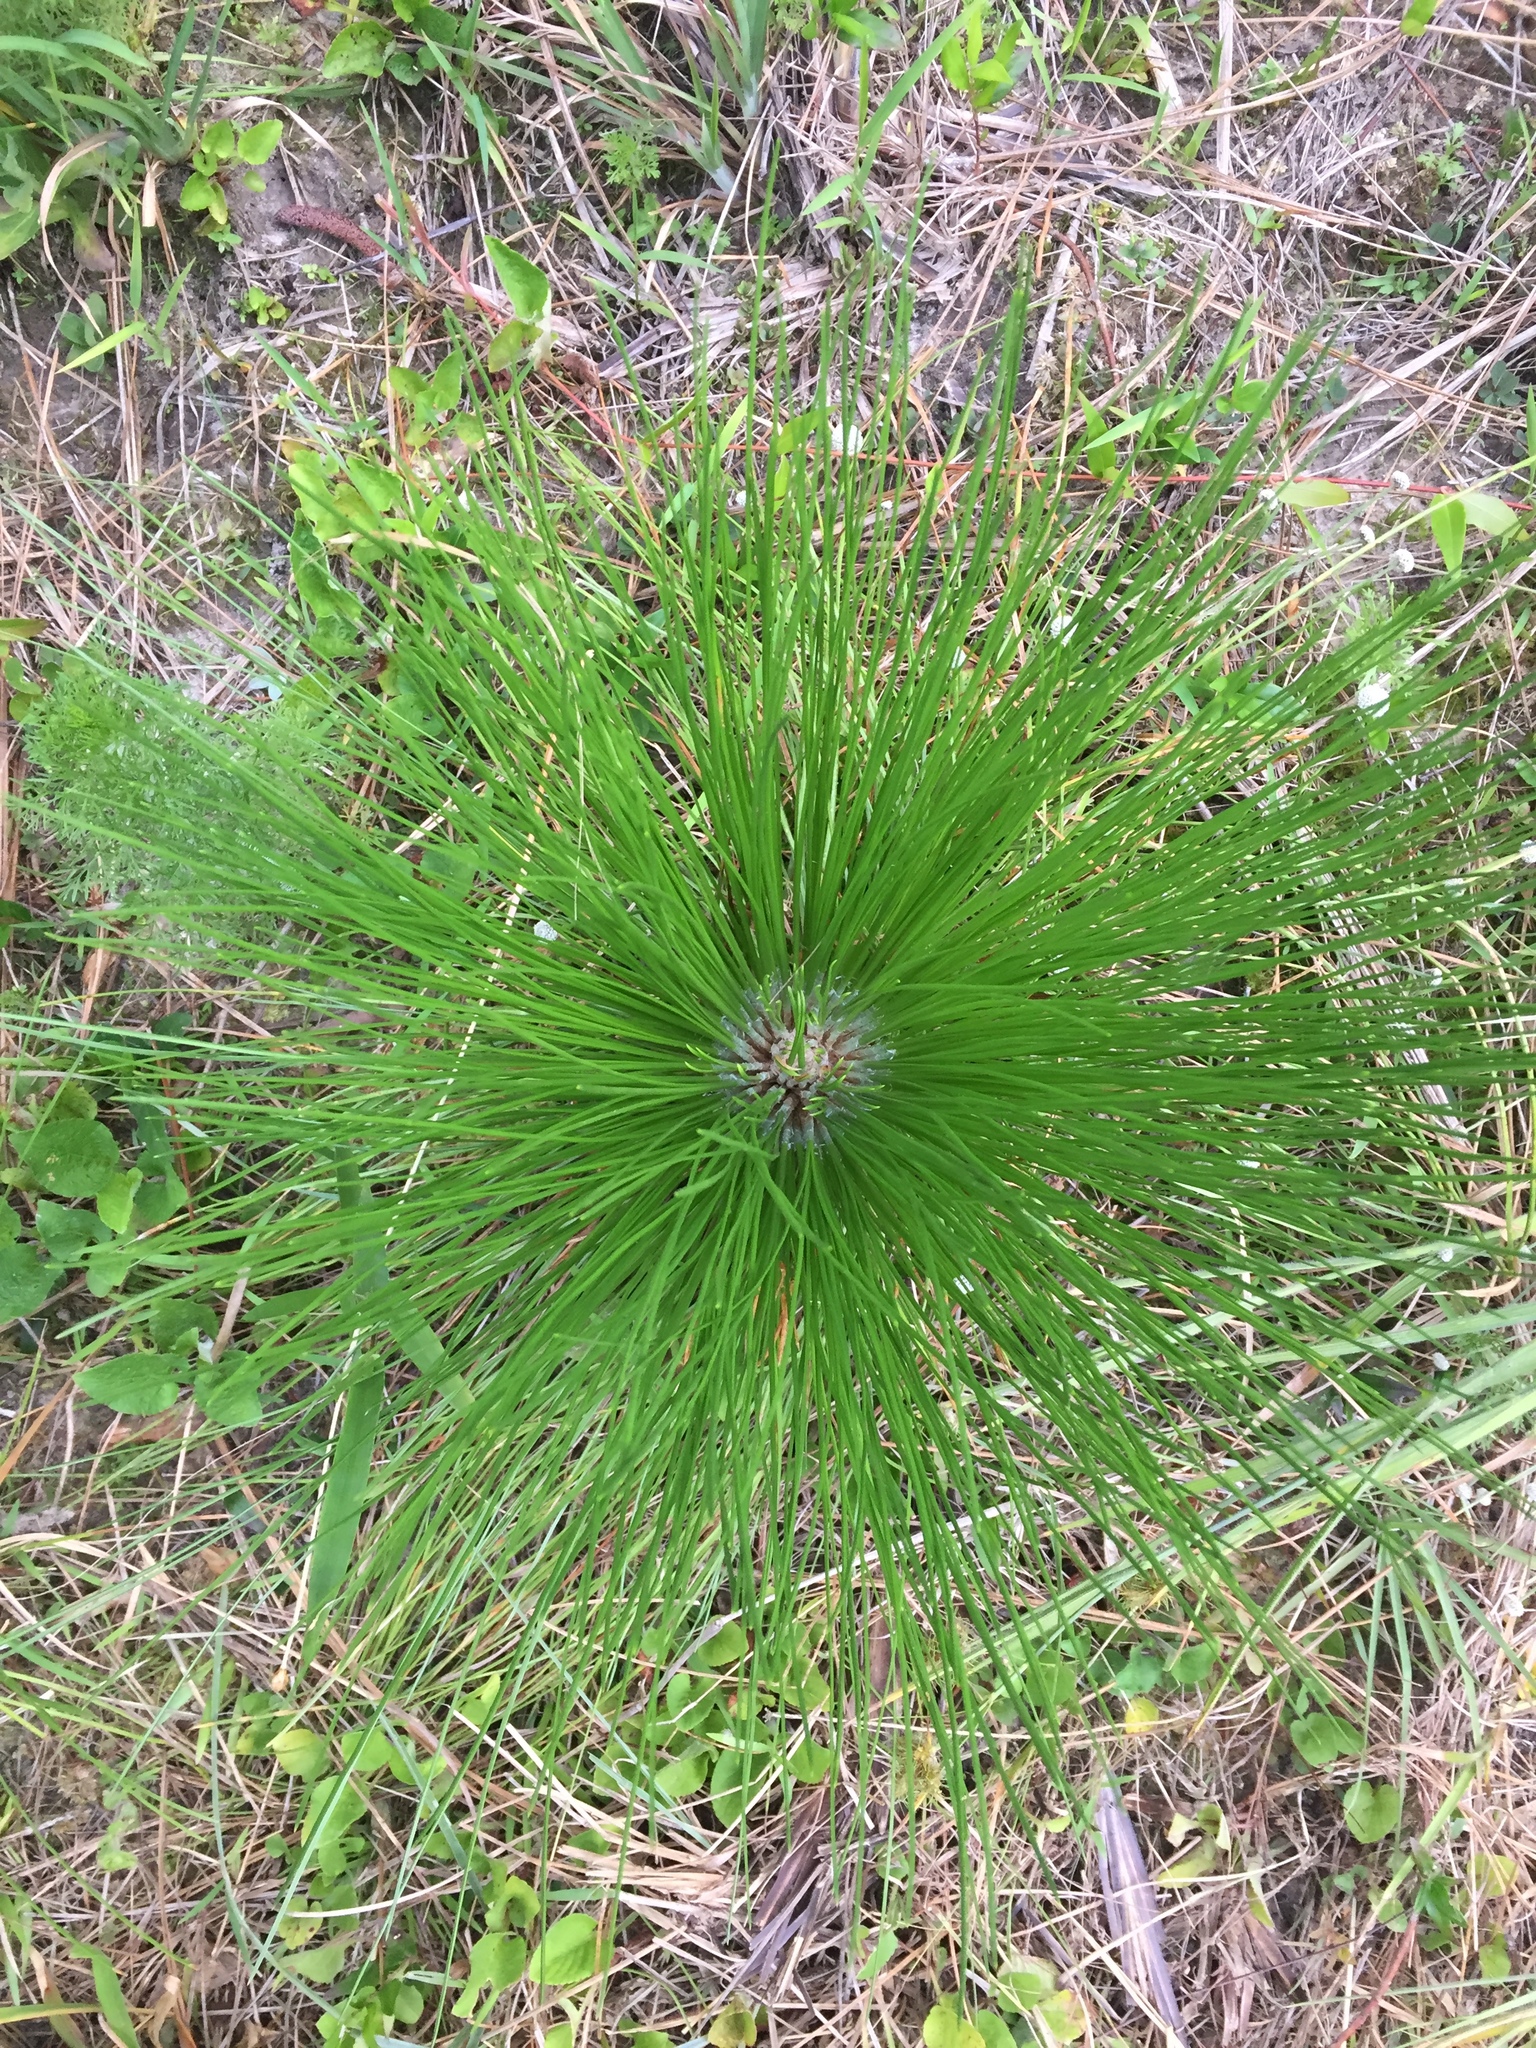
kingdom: Plantae
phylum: Tracheophyta
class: Pinopsida
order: Pinales
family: Pinaceae
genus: Pinus
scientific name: Pinus palustris
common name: Longleaf pine
